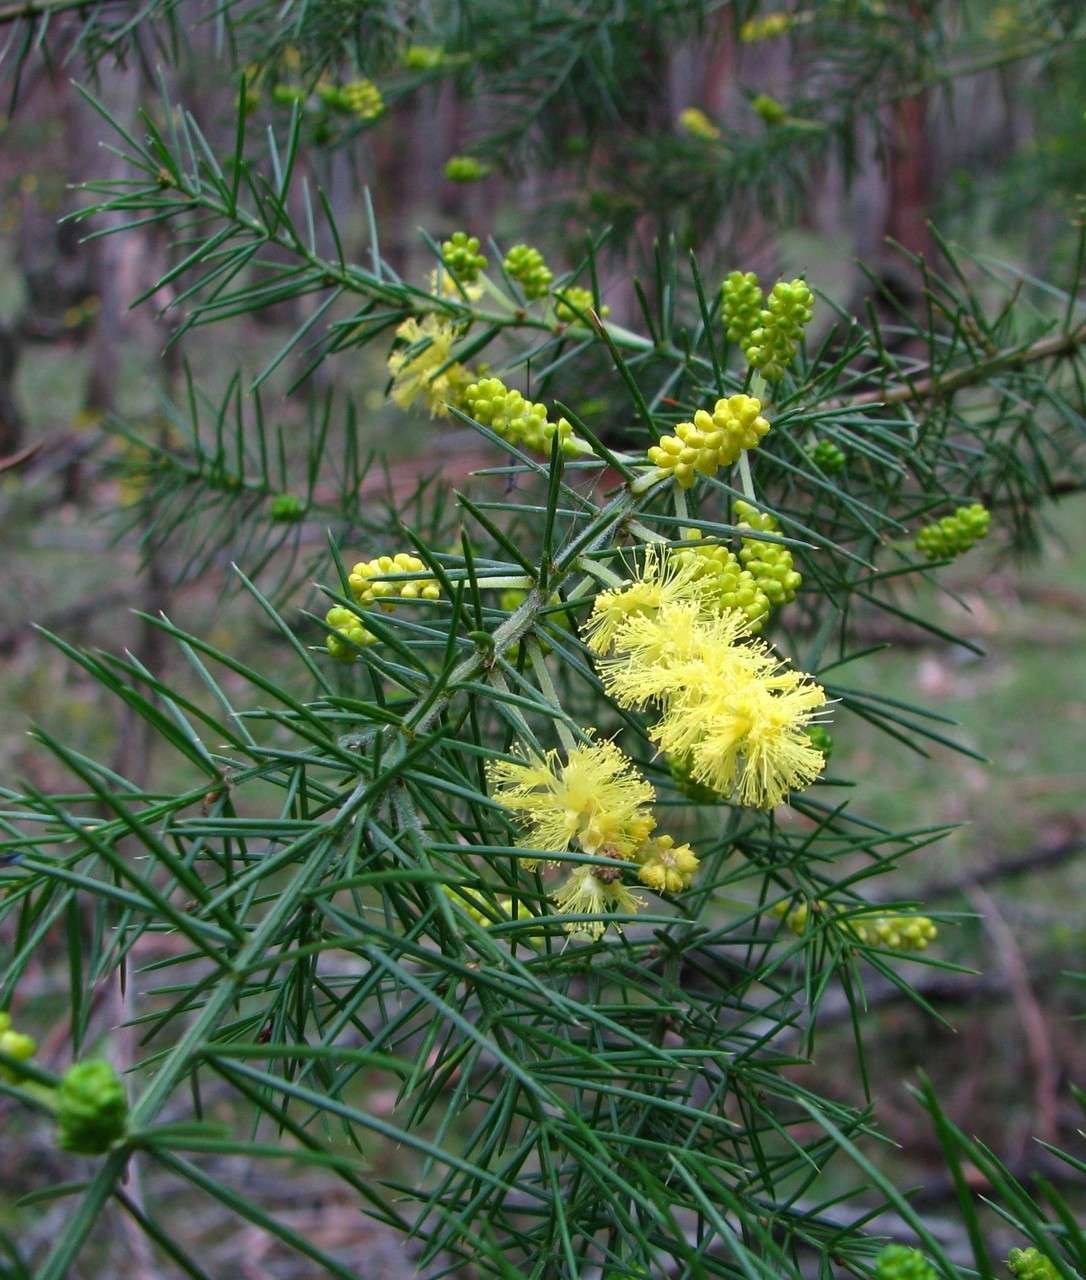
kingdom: Plantae
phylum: Tracheophyta
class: Magnoliopsida
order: Fabales
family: Fabaceae
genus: Acacia
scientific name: Acacia verticillata
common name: Prickly moses
